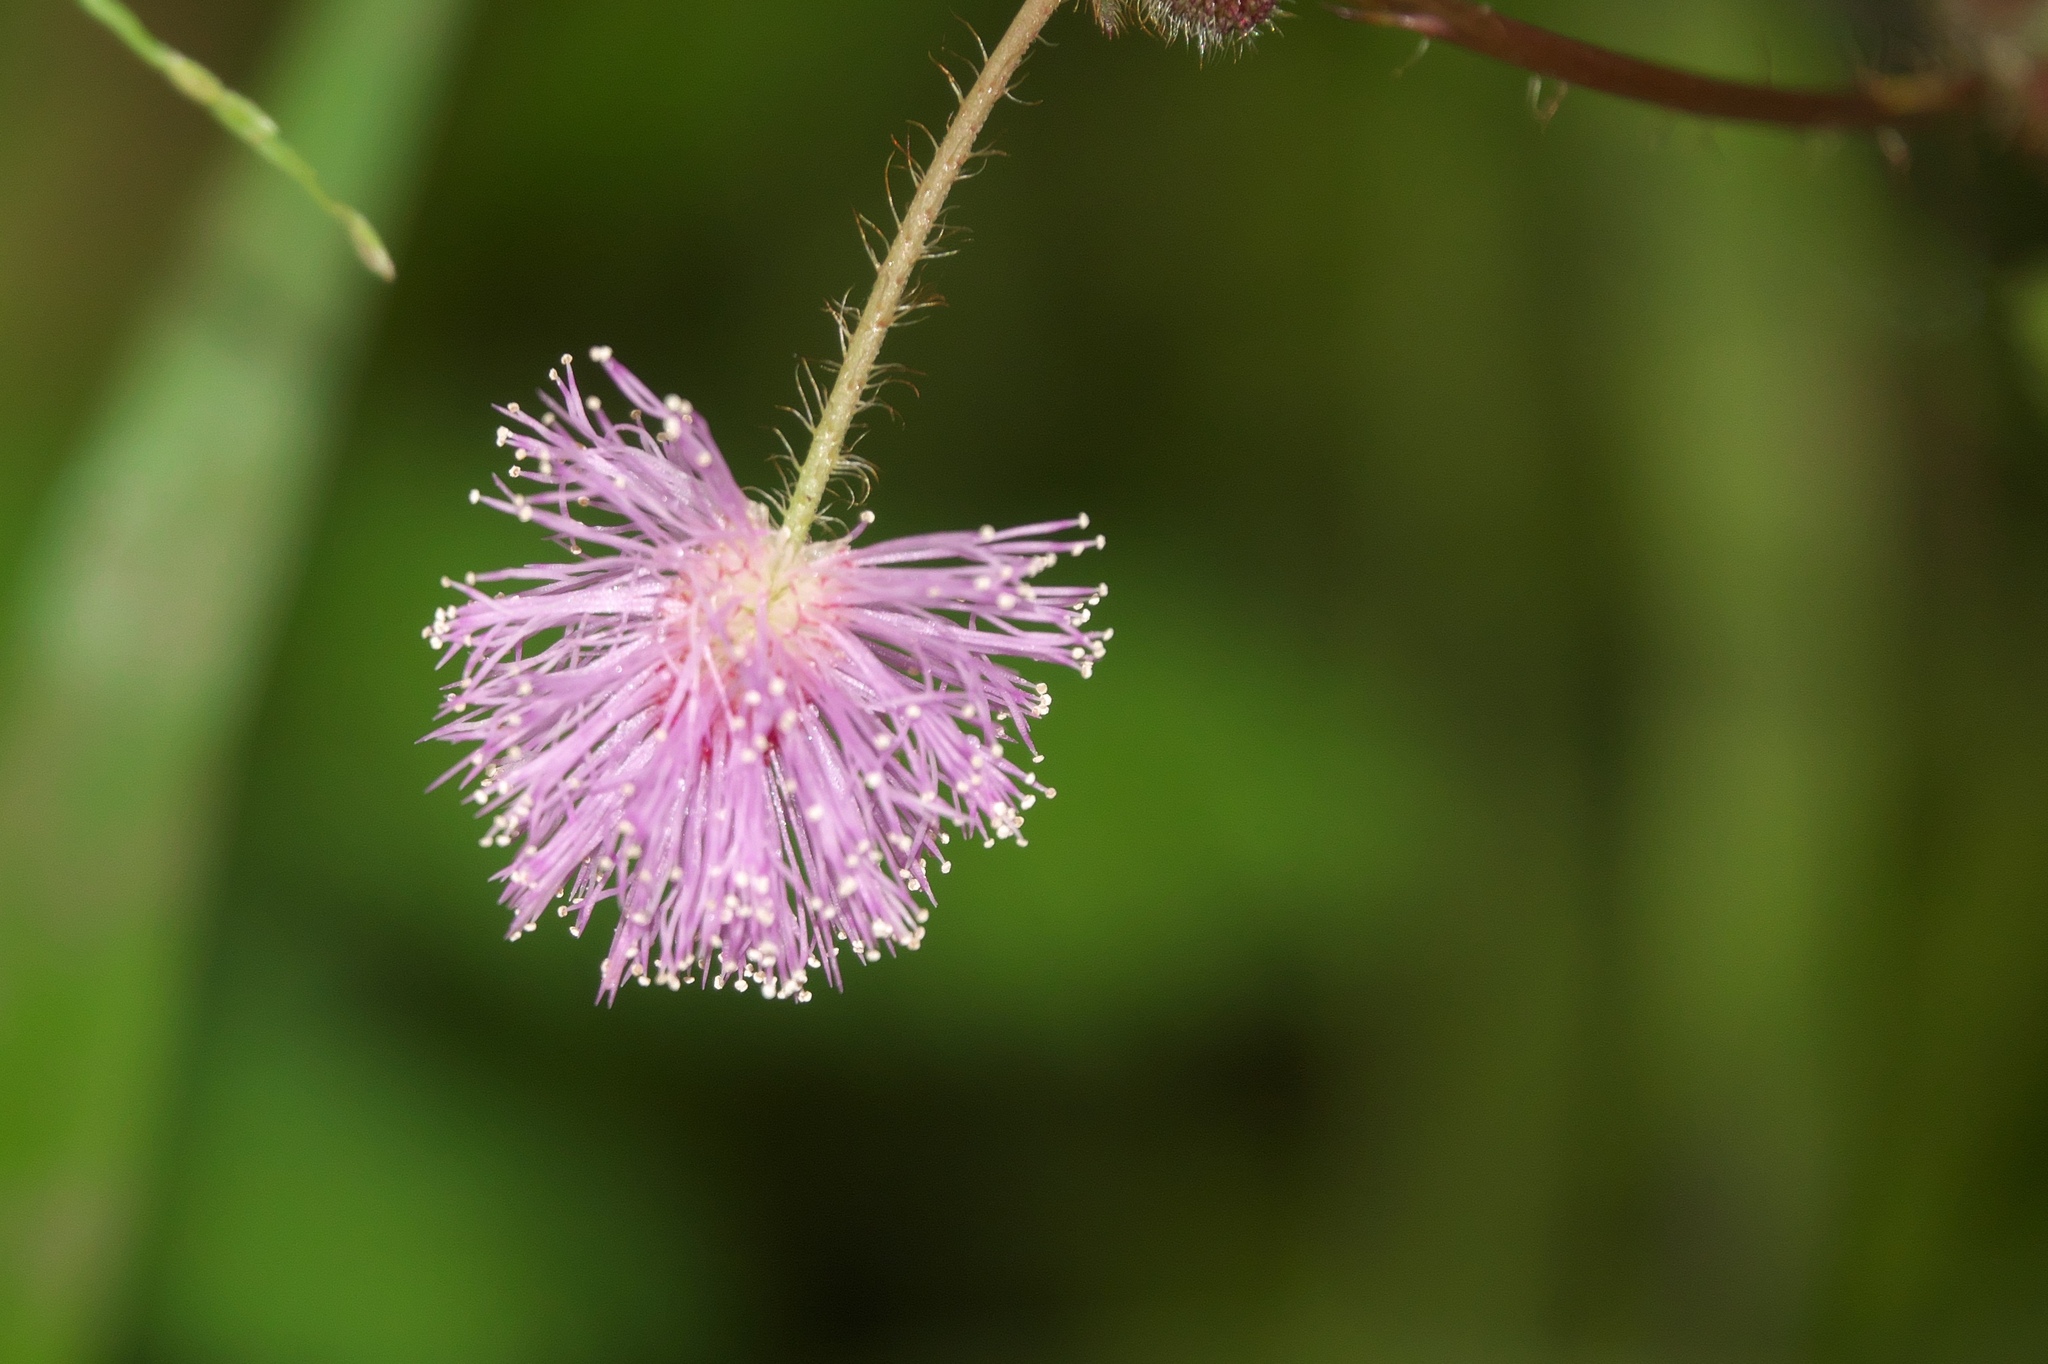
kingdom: Plantae
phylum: Tracheophyta
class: Magnoliopsida
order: Fabales
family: Fabaceae
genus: Mimosa
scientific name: Mimosa pudica
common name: Sensitive plant
